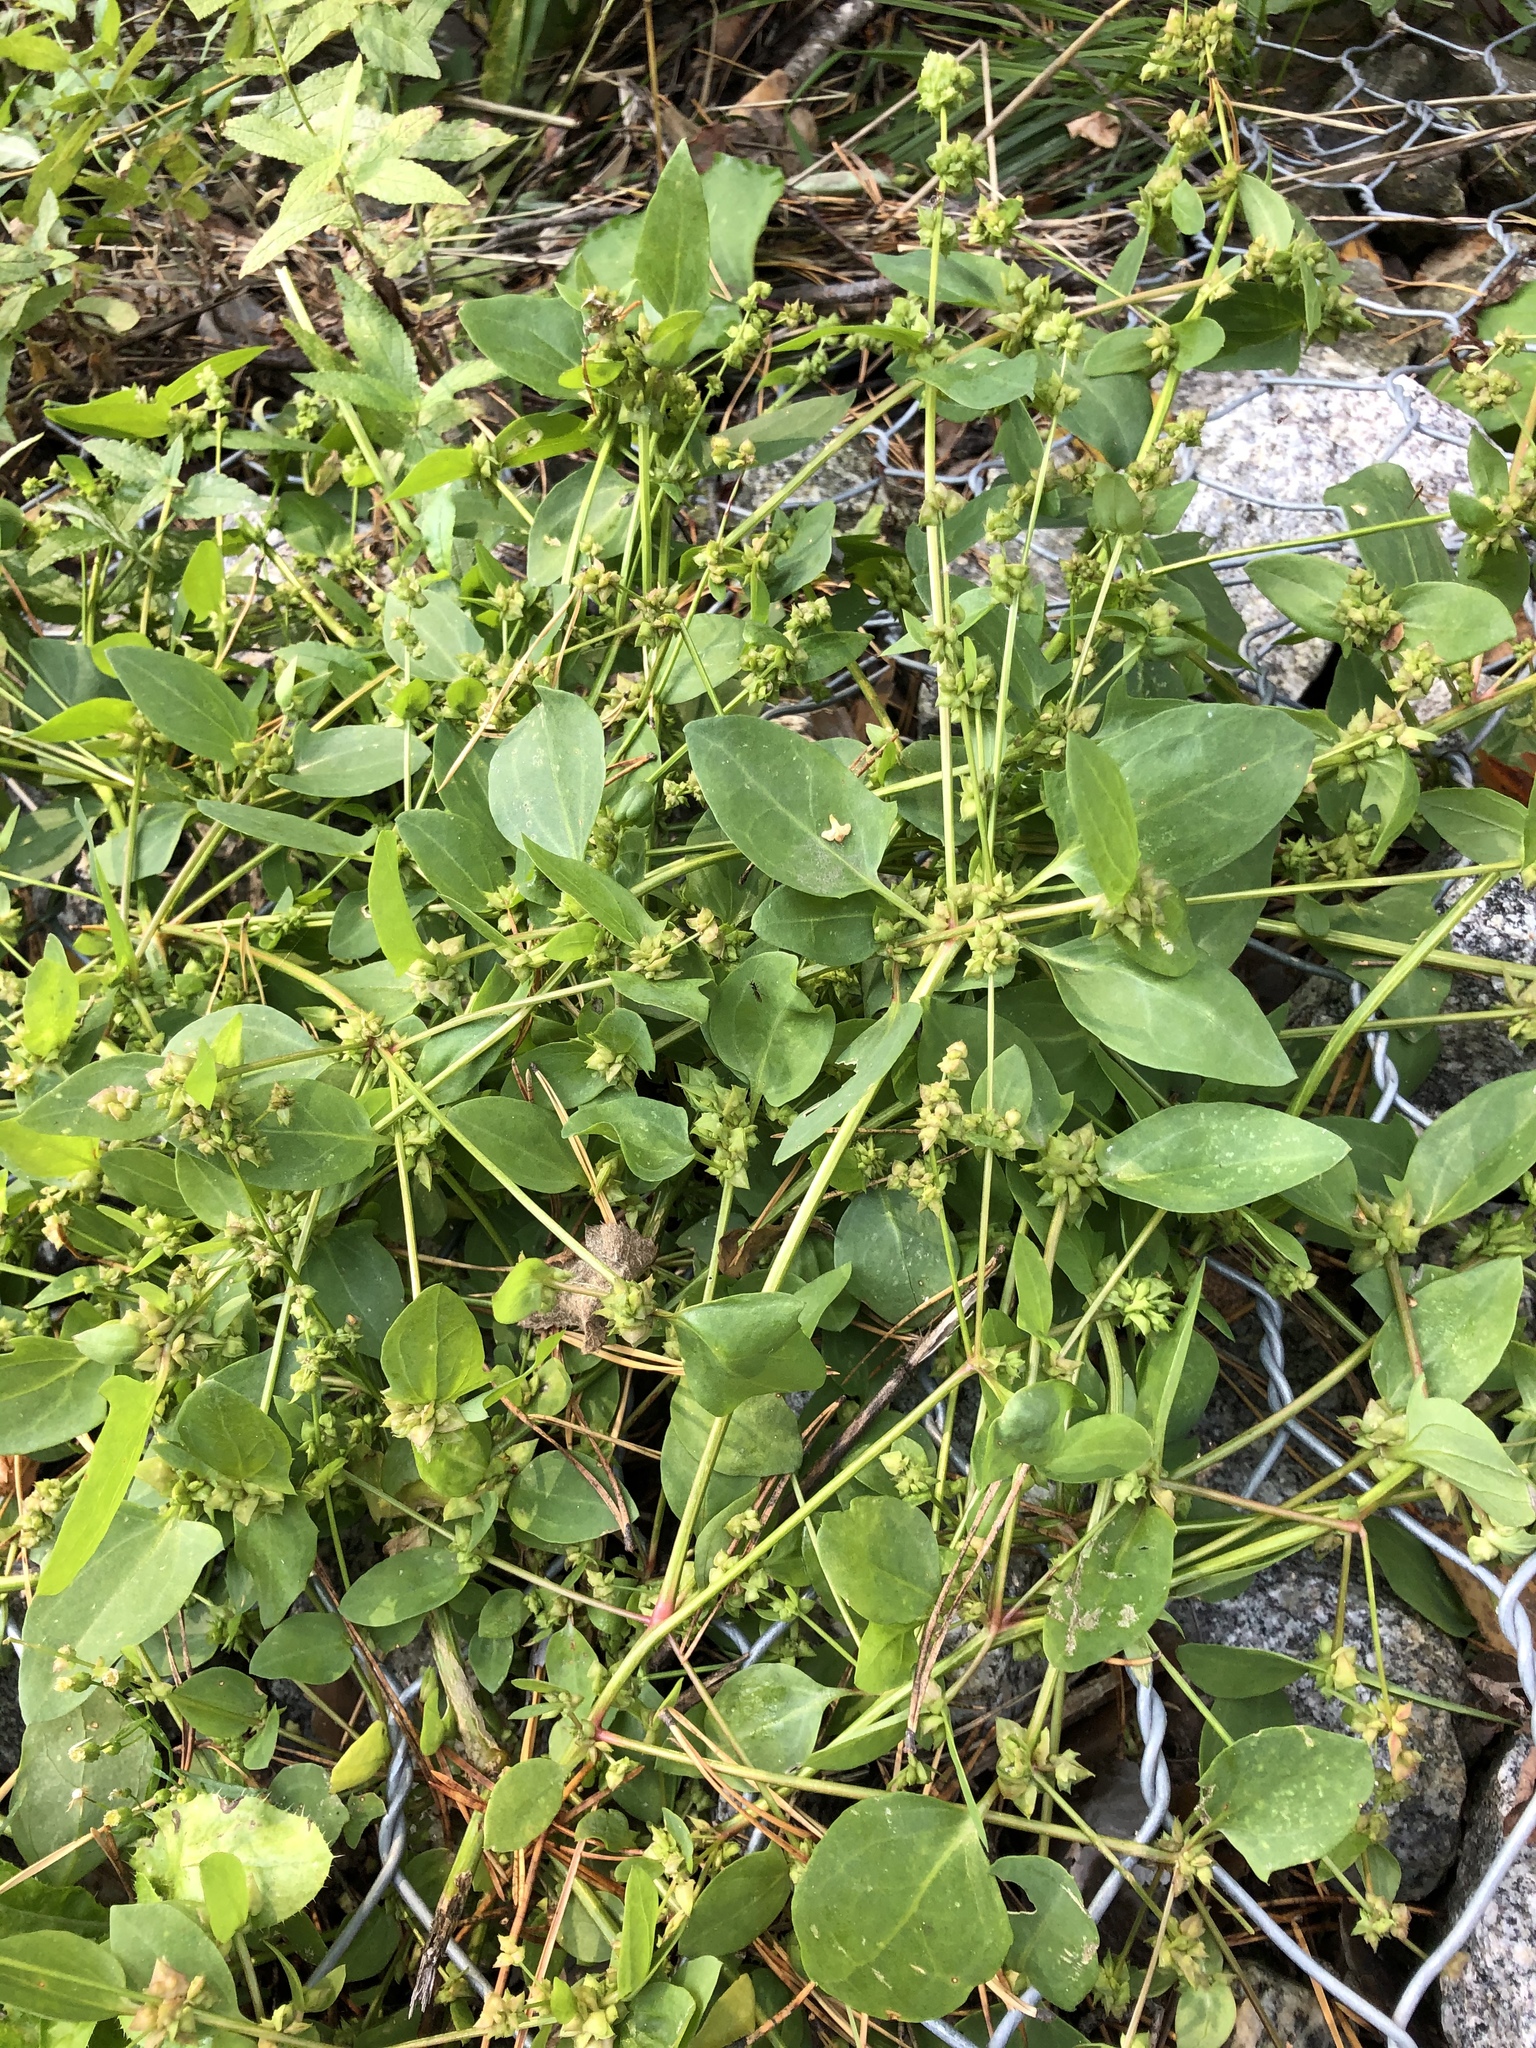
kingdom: Plantae
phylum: Tracheophyta
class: Magnoliopsida
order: Caryophyllales
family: Amaranthaceae
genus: Atriplex
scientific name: Atriplex prostrata
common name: Spear-leaved orache
